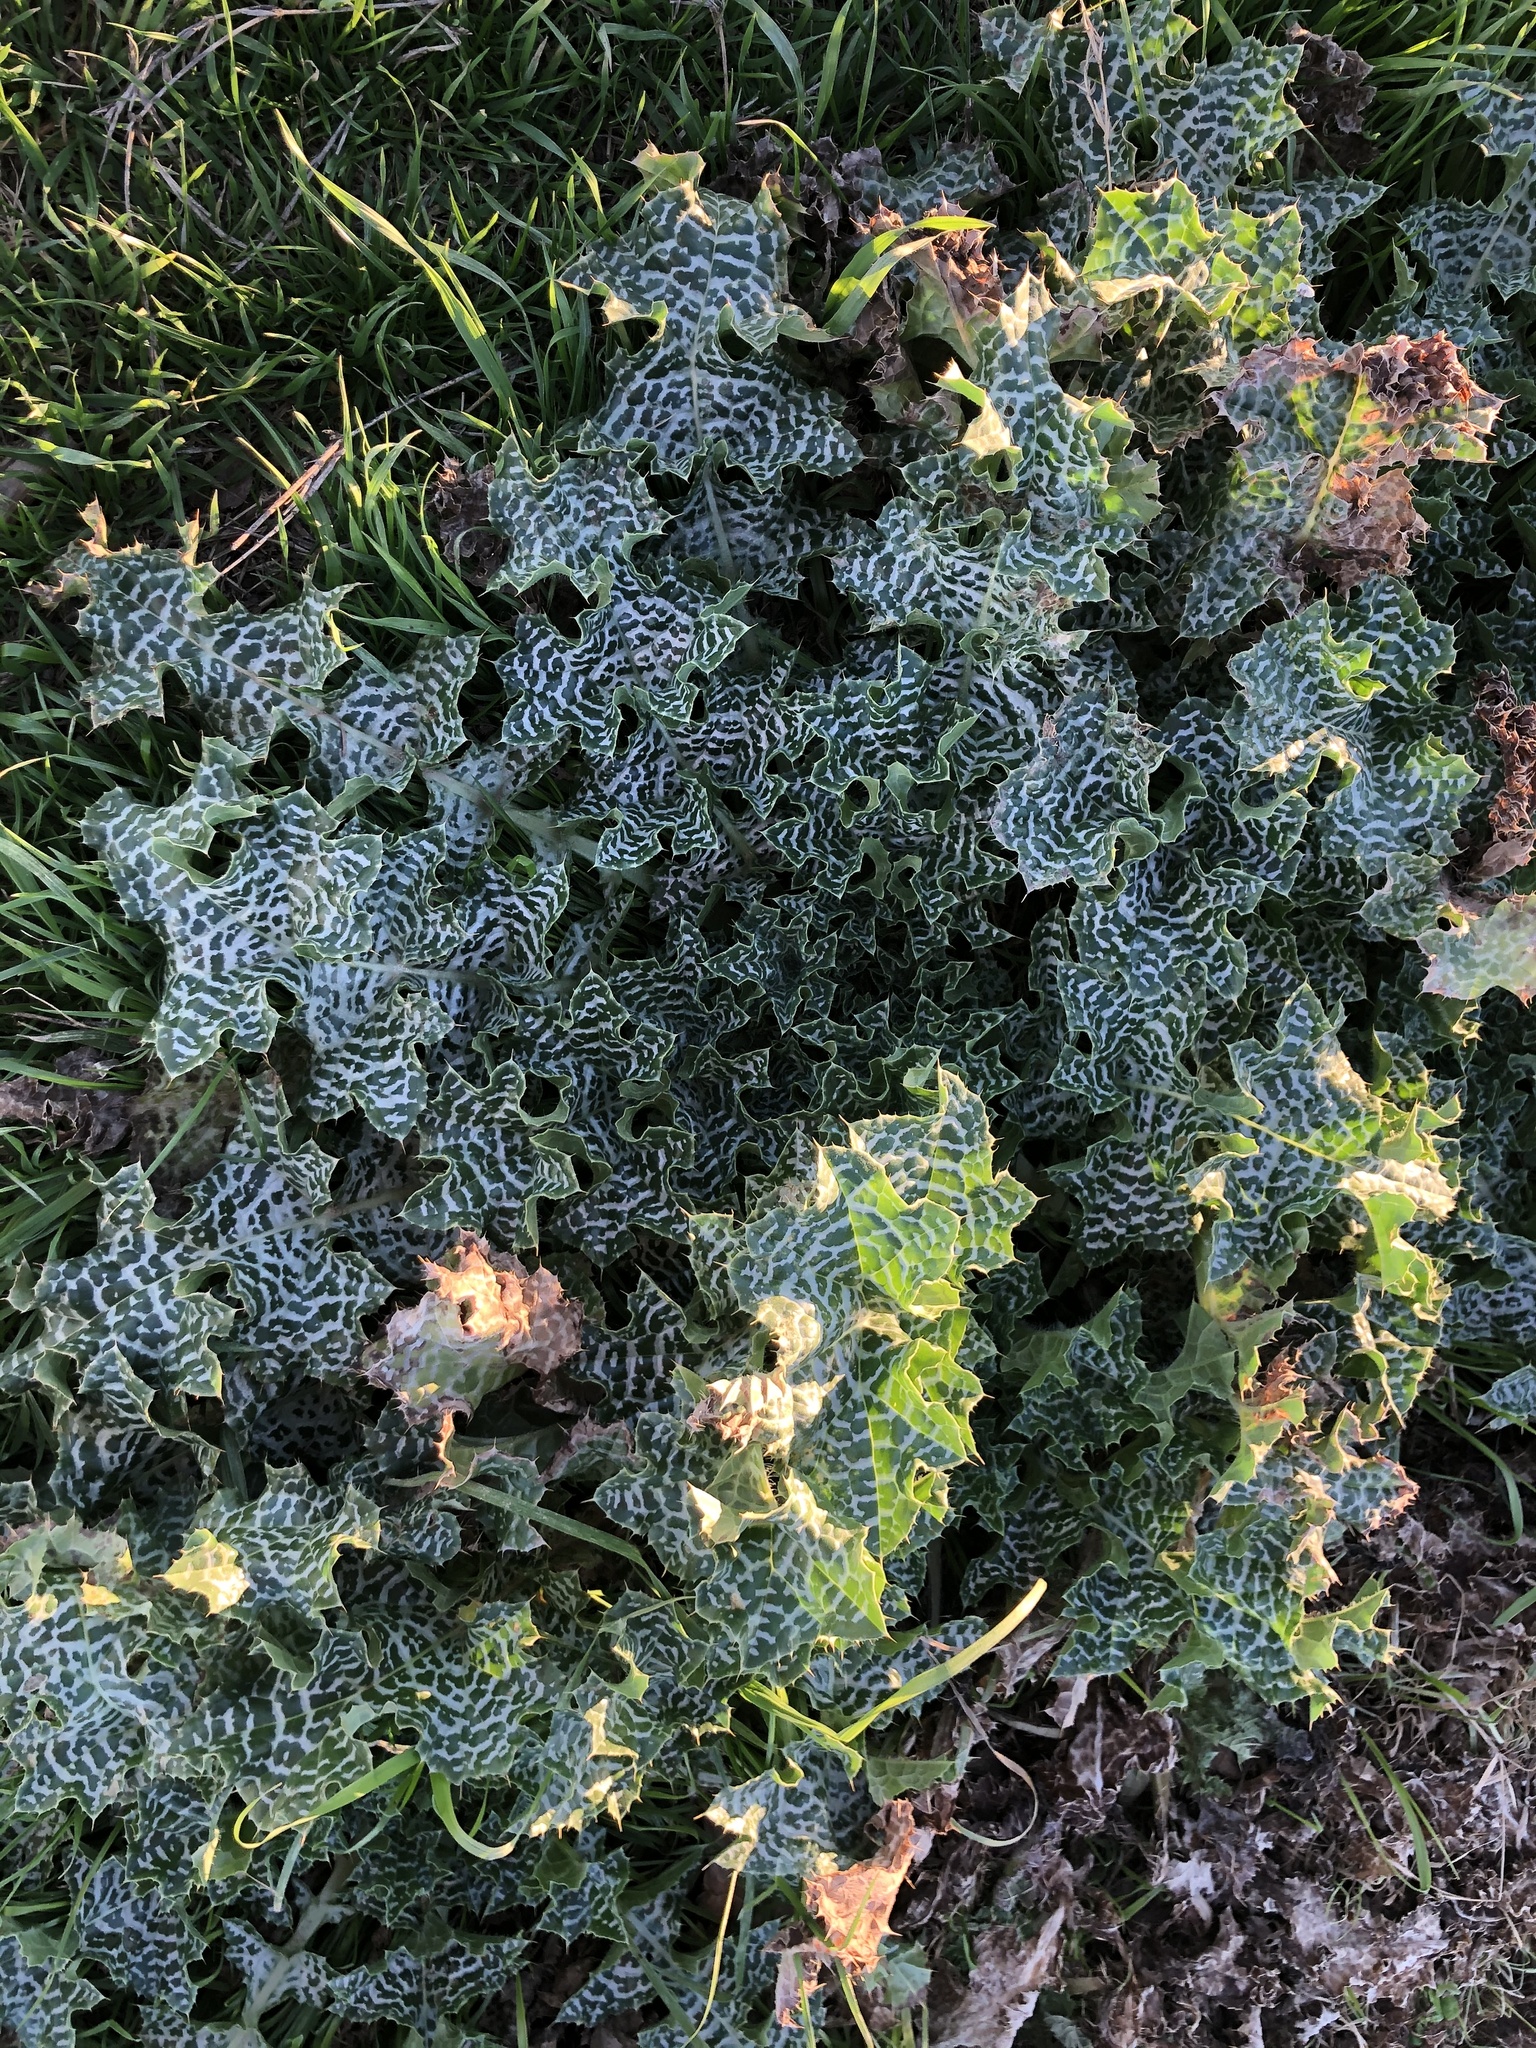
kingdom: Plantae
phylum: Tracheophyta
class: Magnoliopsida
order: Asterales
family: Asteraceae
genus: Silybum
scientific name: Silybum marianum
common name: Milk thistle
